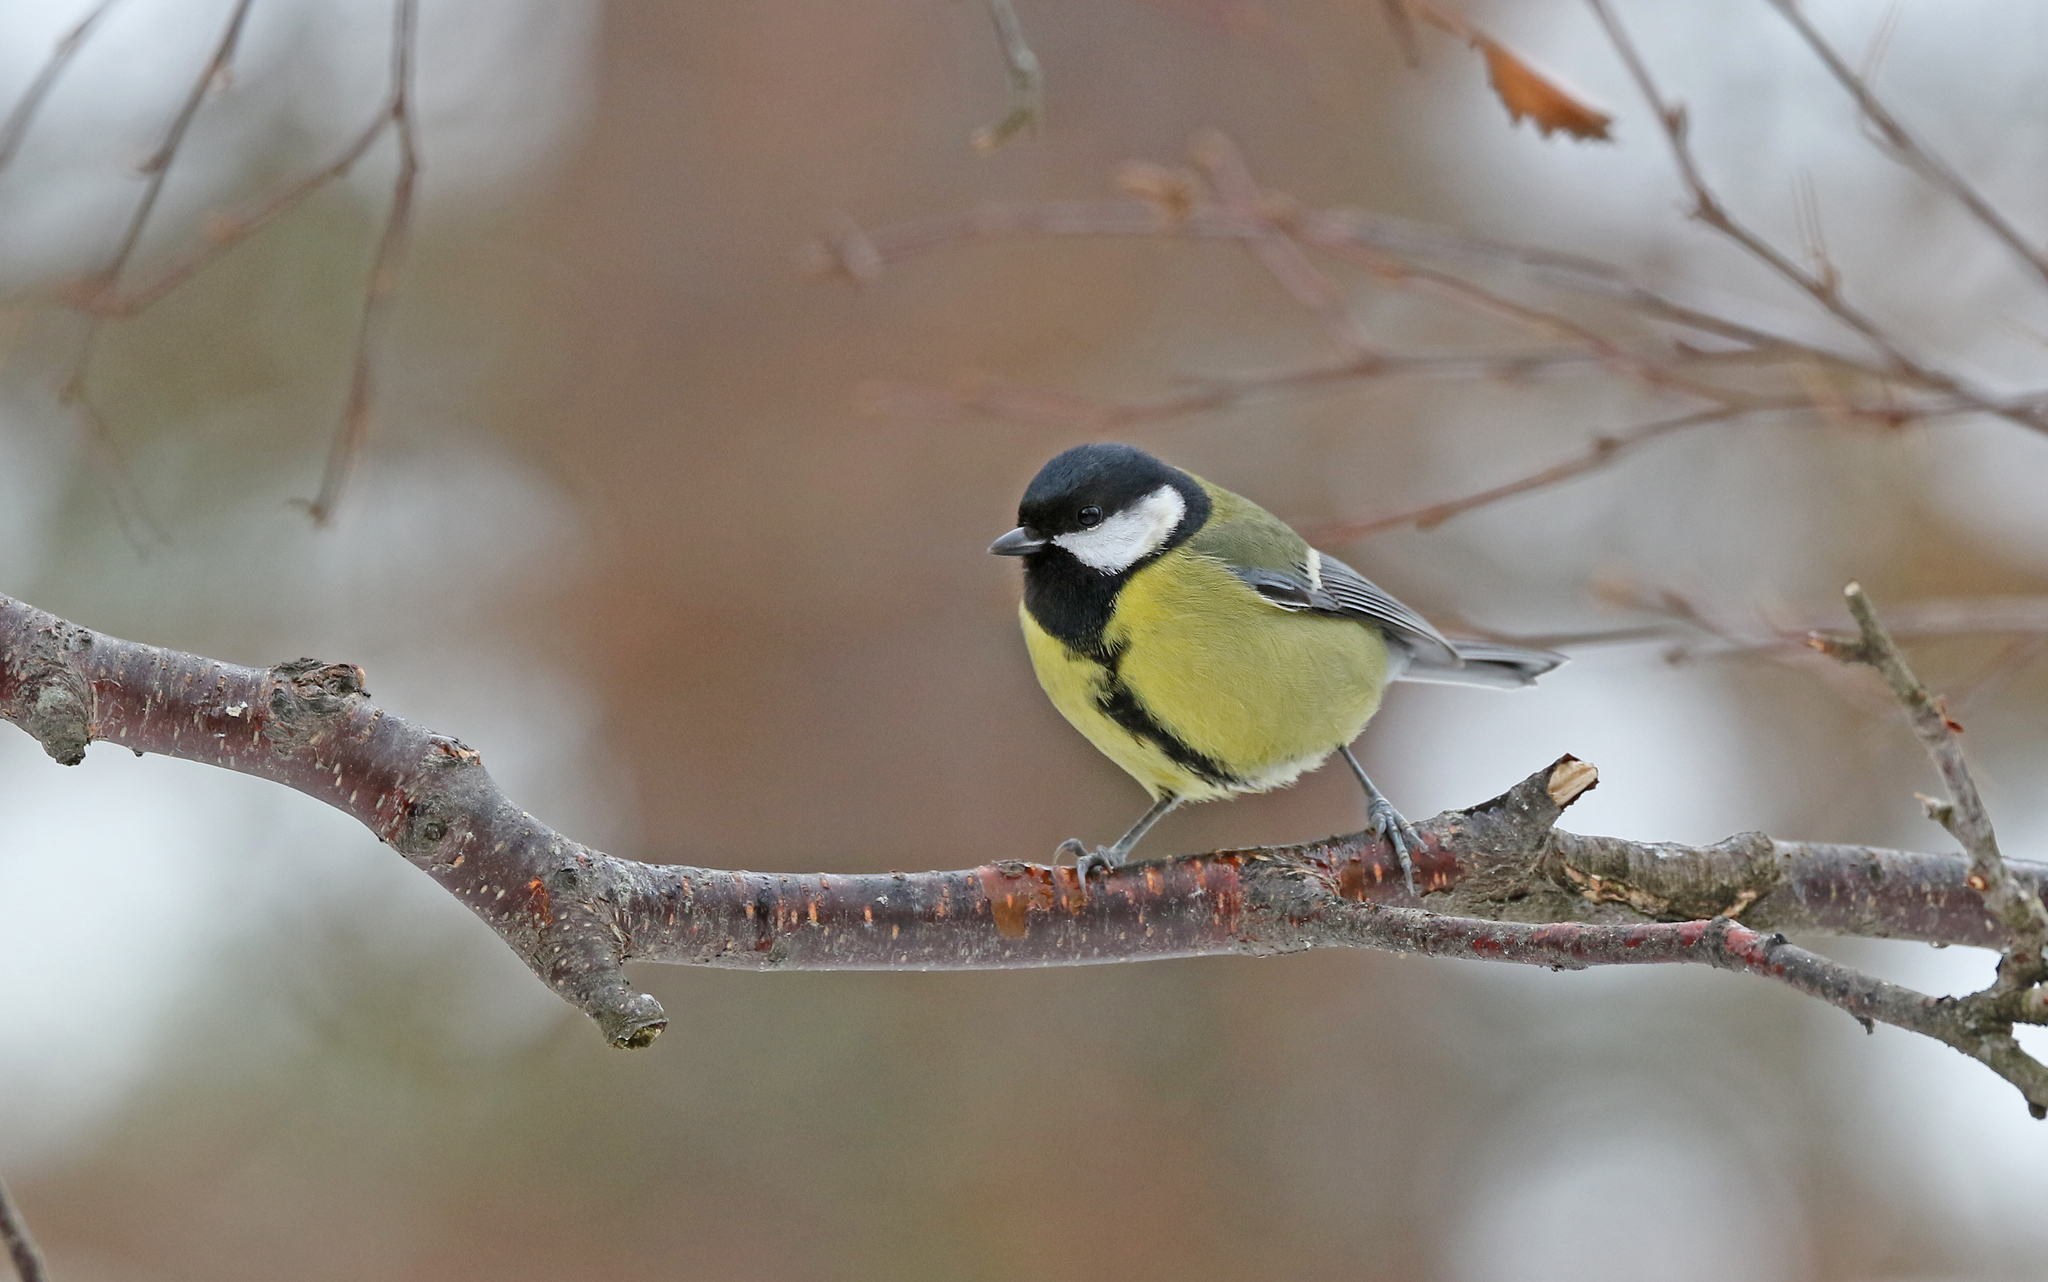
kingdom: Animalia
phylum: Chordata
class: Aves
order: Passeriformes
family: Paridae
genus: Parus
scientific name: Parus major
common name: Great tit
